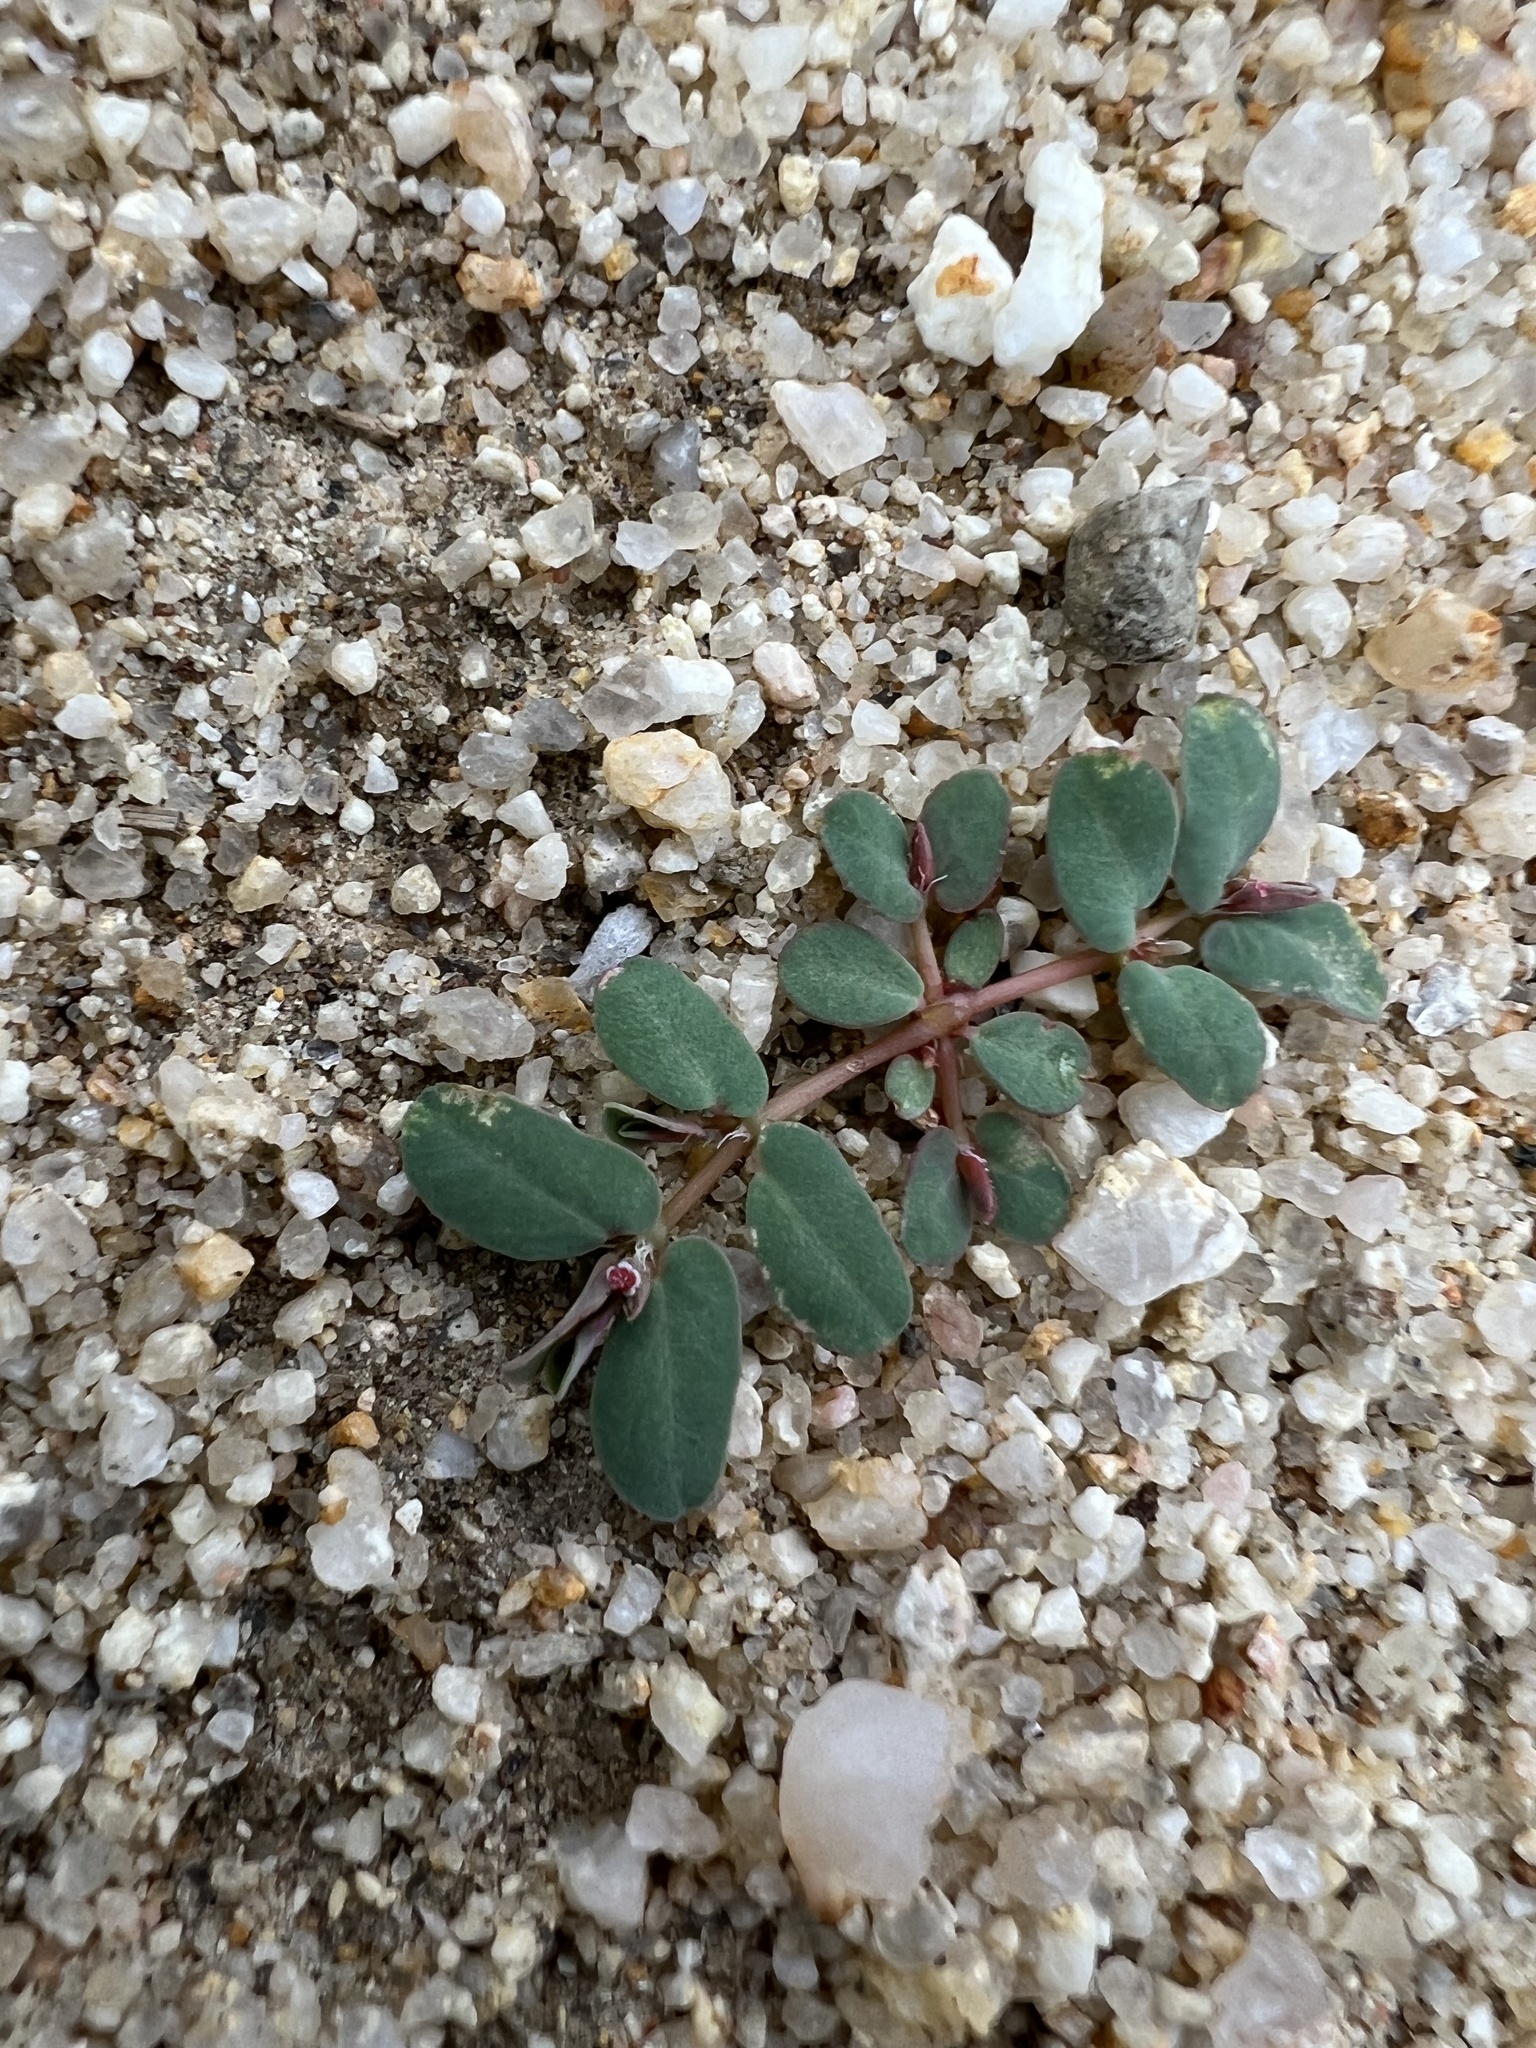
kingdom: Plantae
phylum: Tracheophyta
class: Magnoliopsida
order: Malpighiales
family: Euphorbiaceae
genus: Euphorbia
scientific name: Euphorbia glyptosperma
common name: Corrugate-seeded spurge
